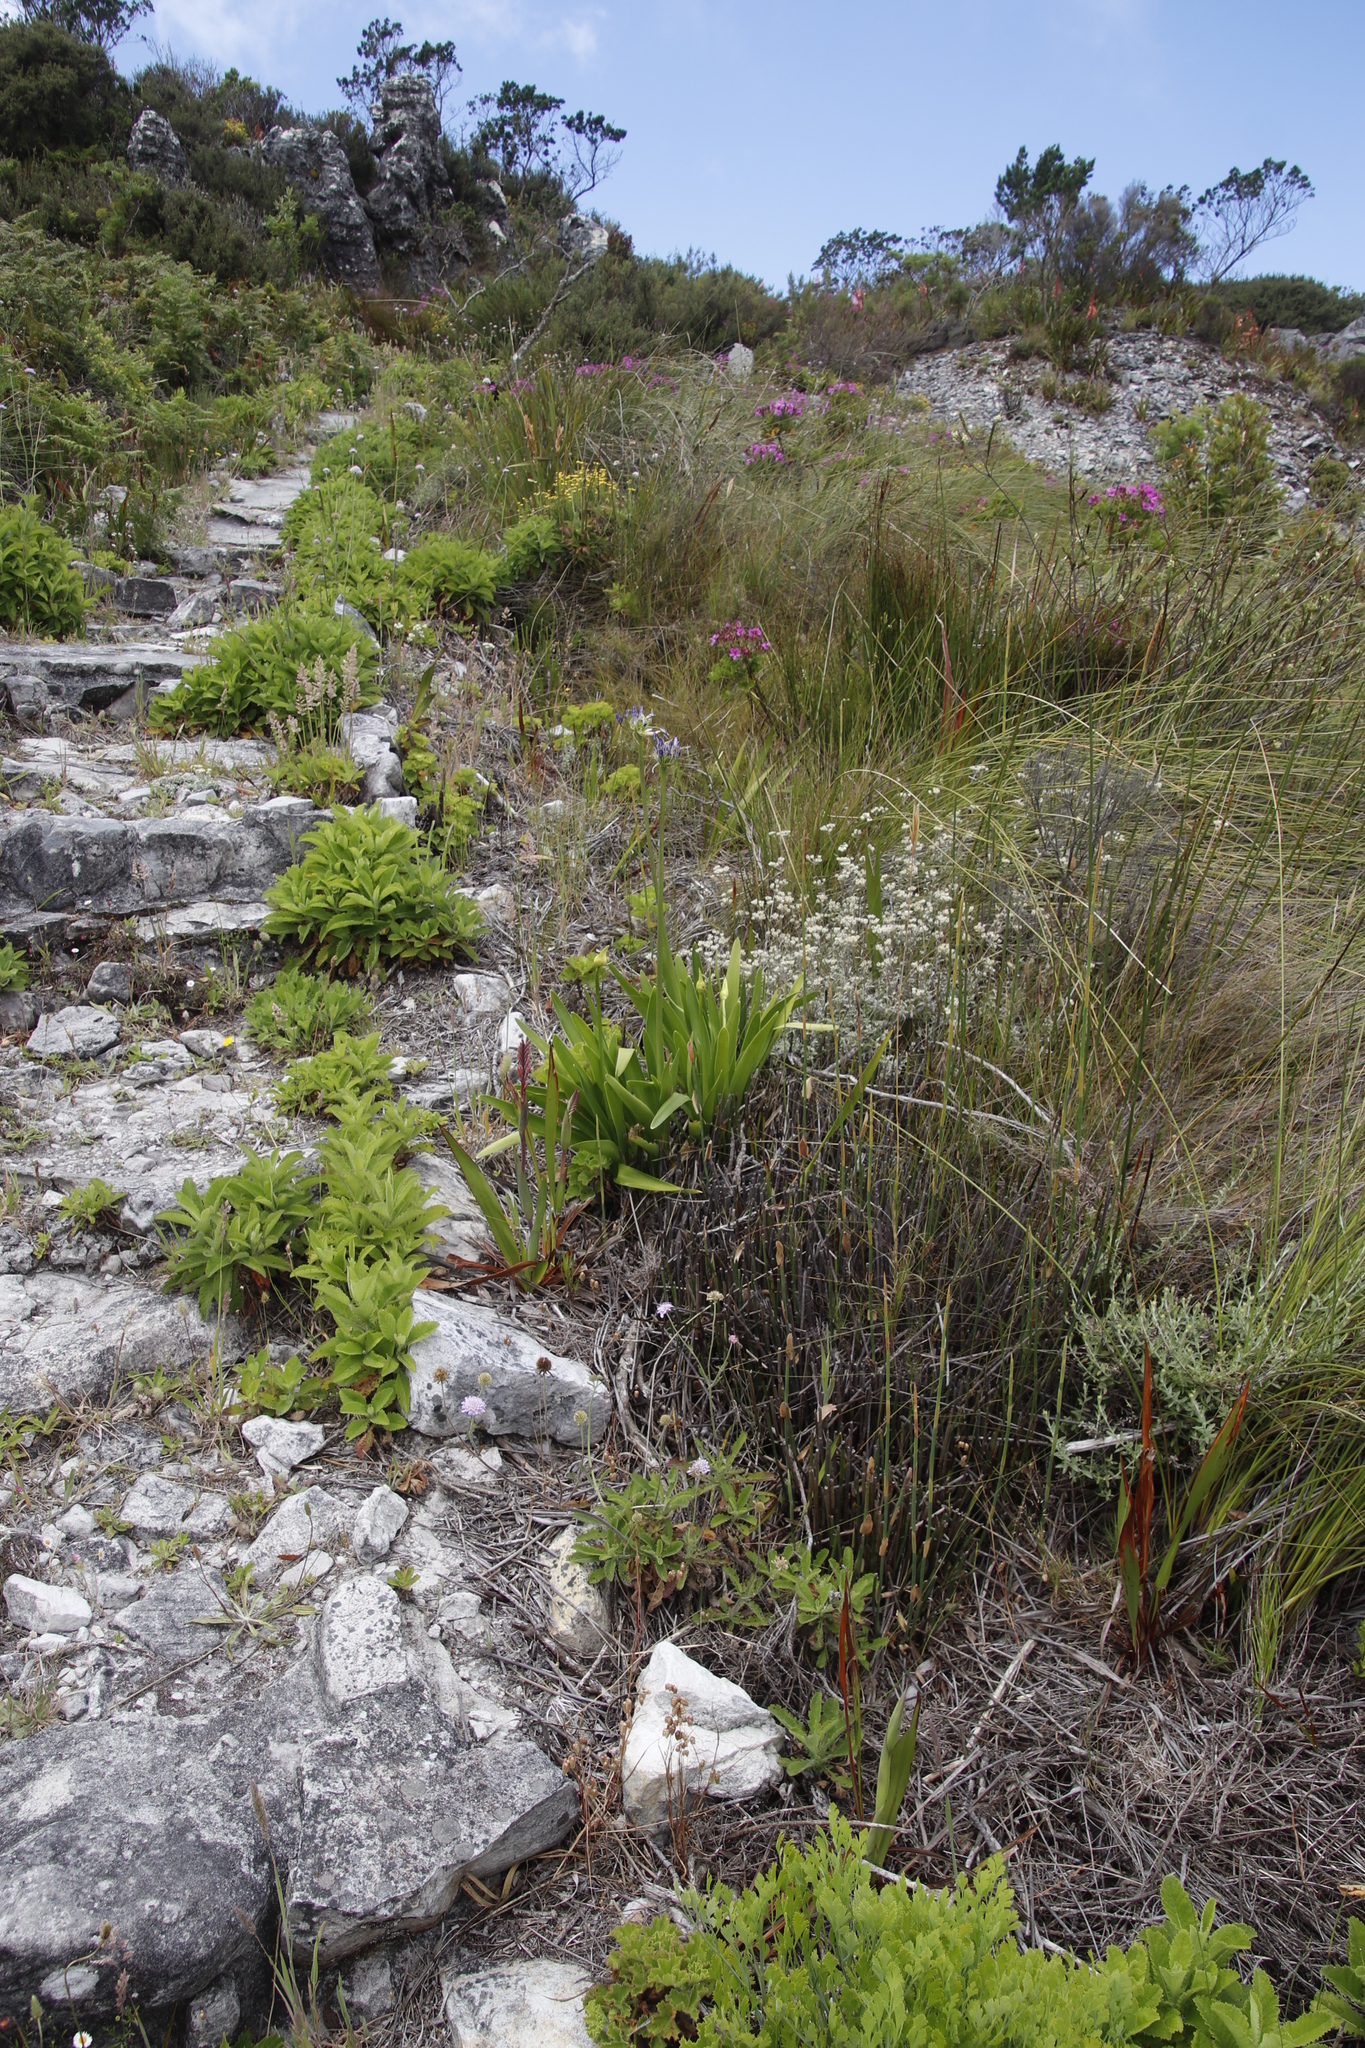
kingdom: Plantae
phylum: Tracheophyta
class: Liliopsida
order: Asparagales
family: Amaryllidaceae
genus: Agapanthus
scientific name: Agapanthus
